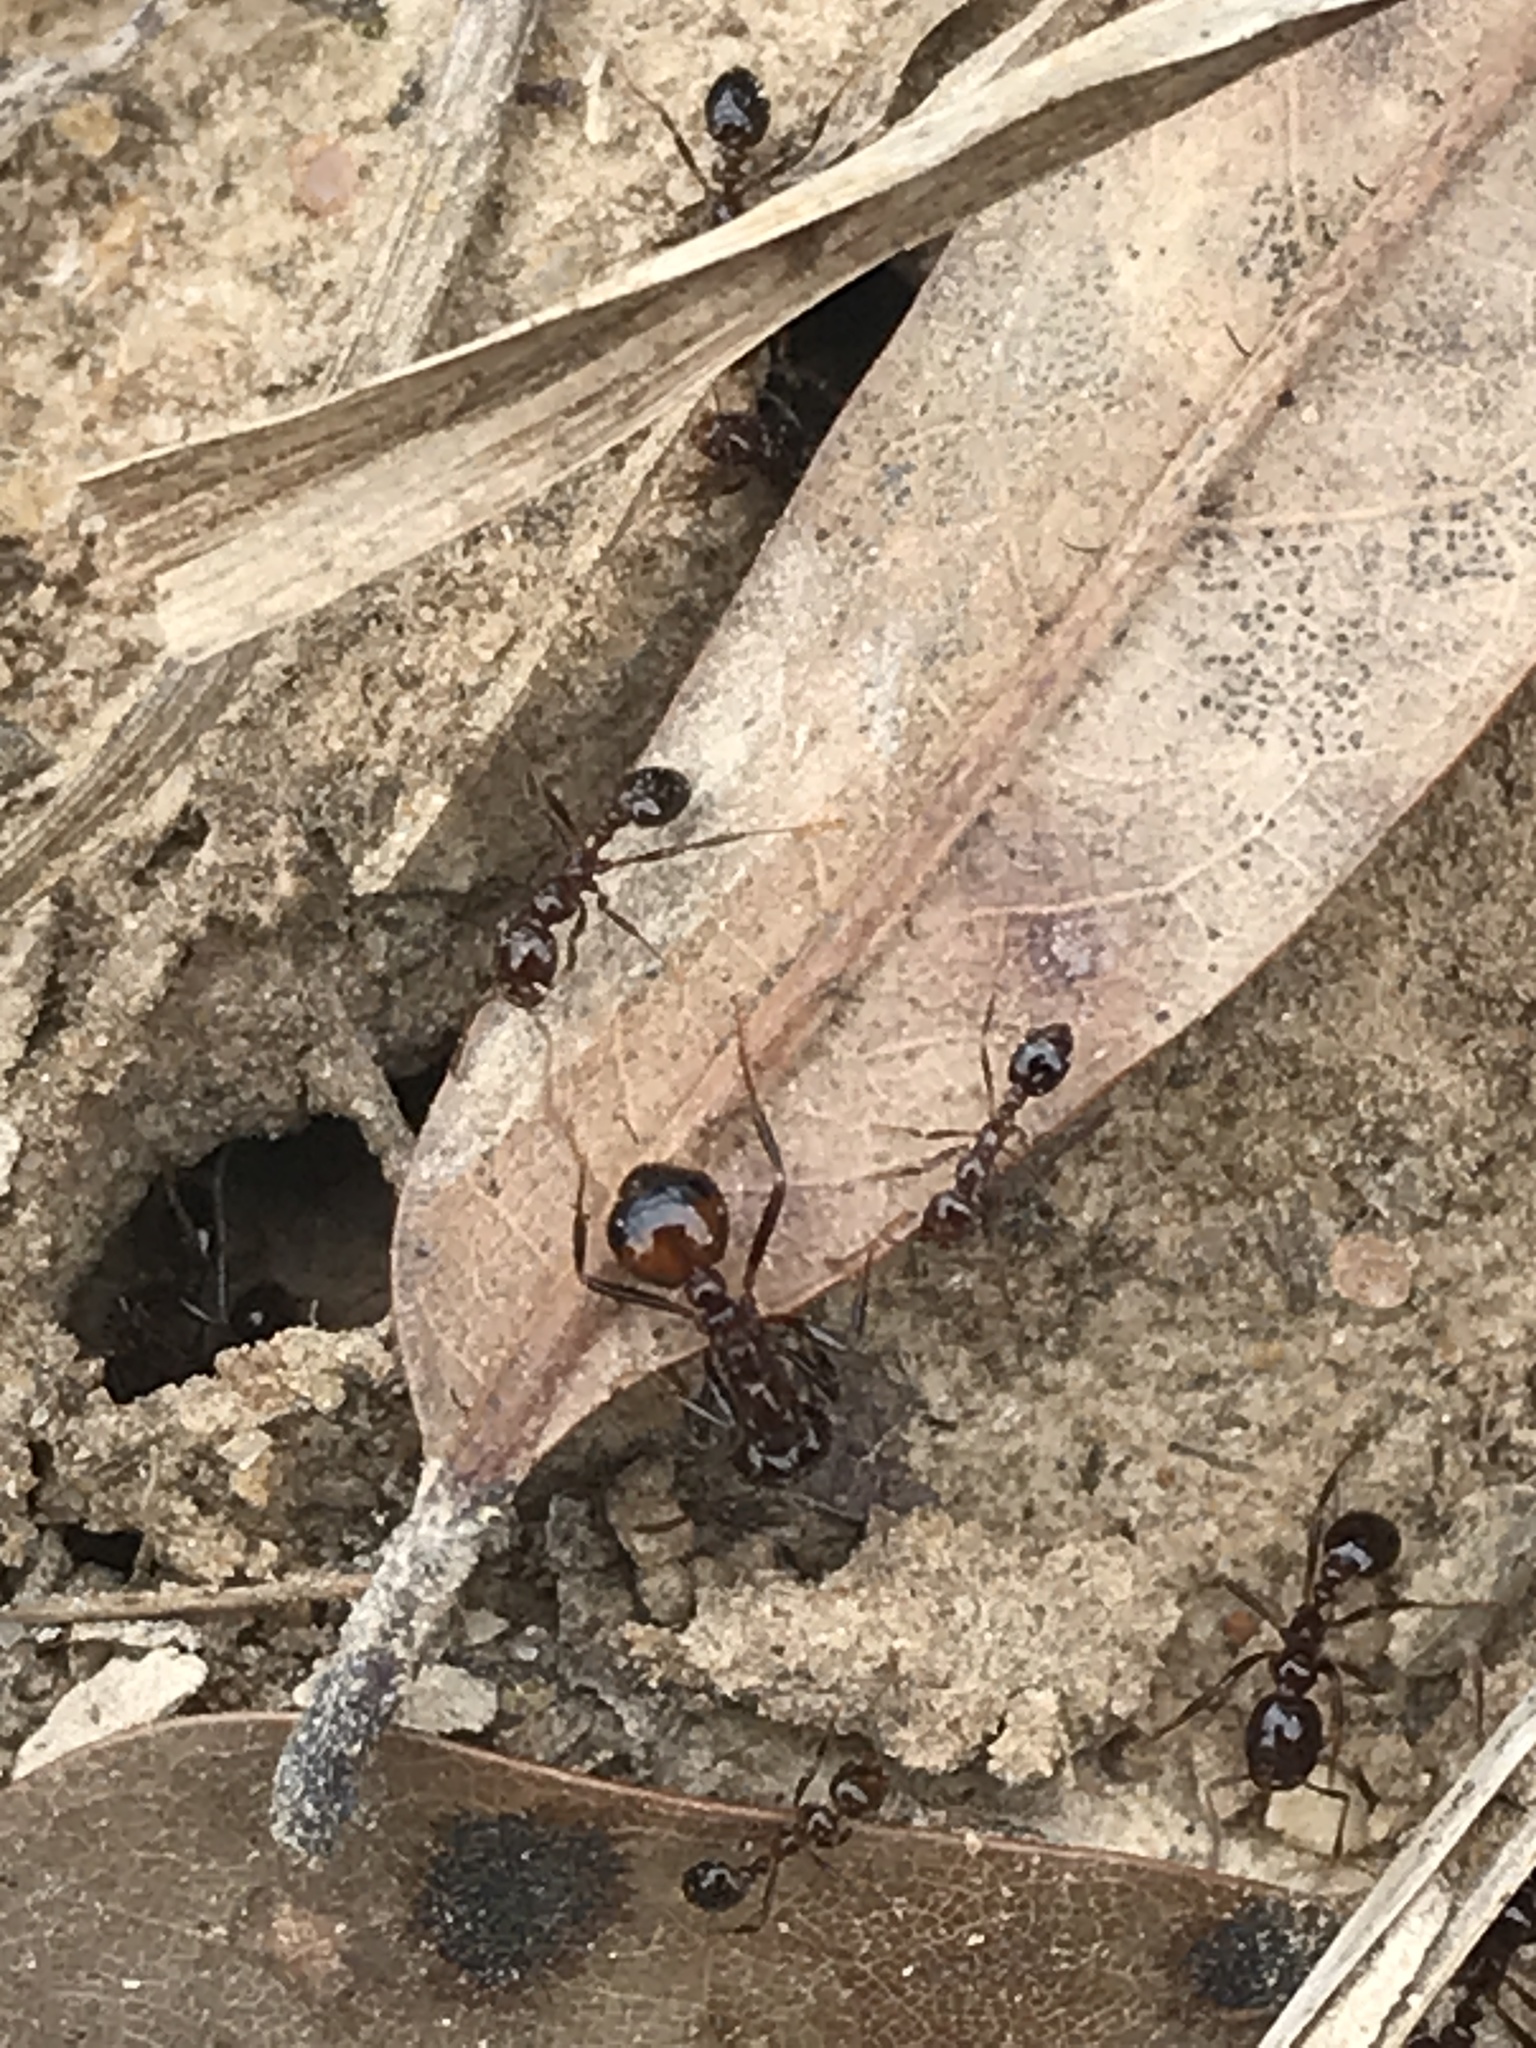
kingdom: Animalia
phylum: Arthropoda
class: Insecta
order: Hymenoptera
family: Formicidae
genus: Solenopsis
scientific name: Solenopsis
